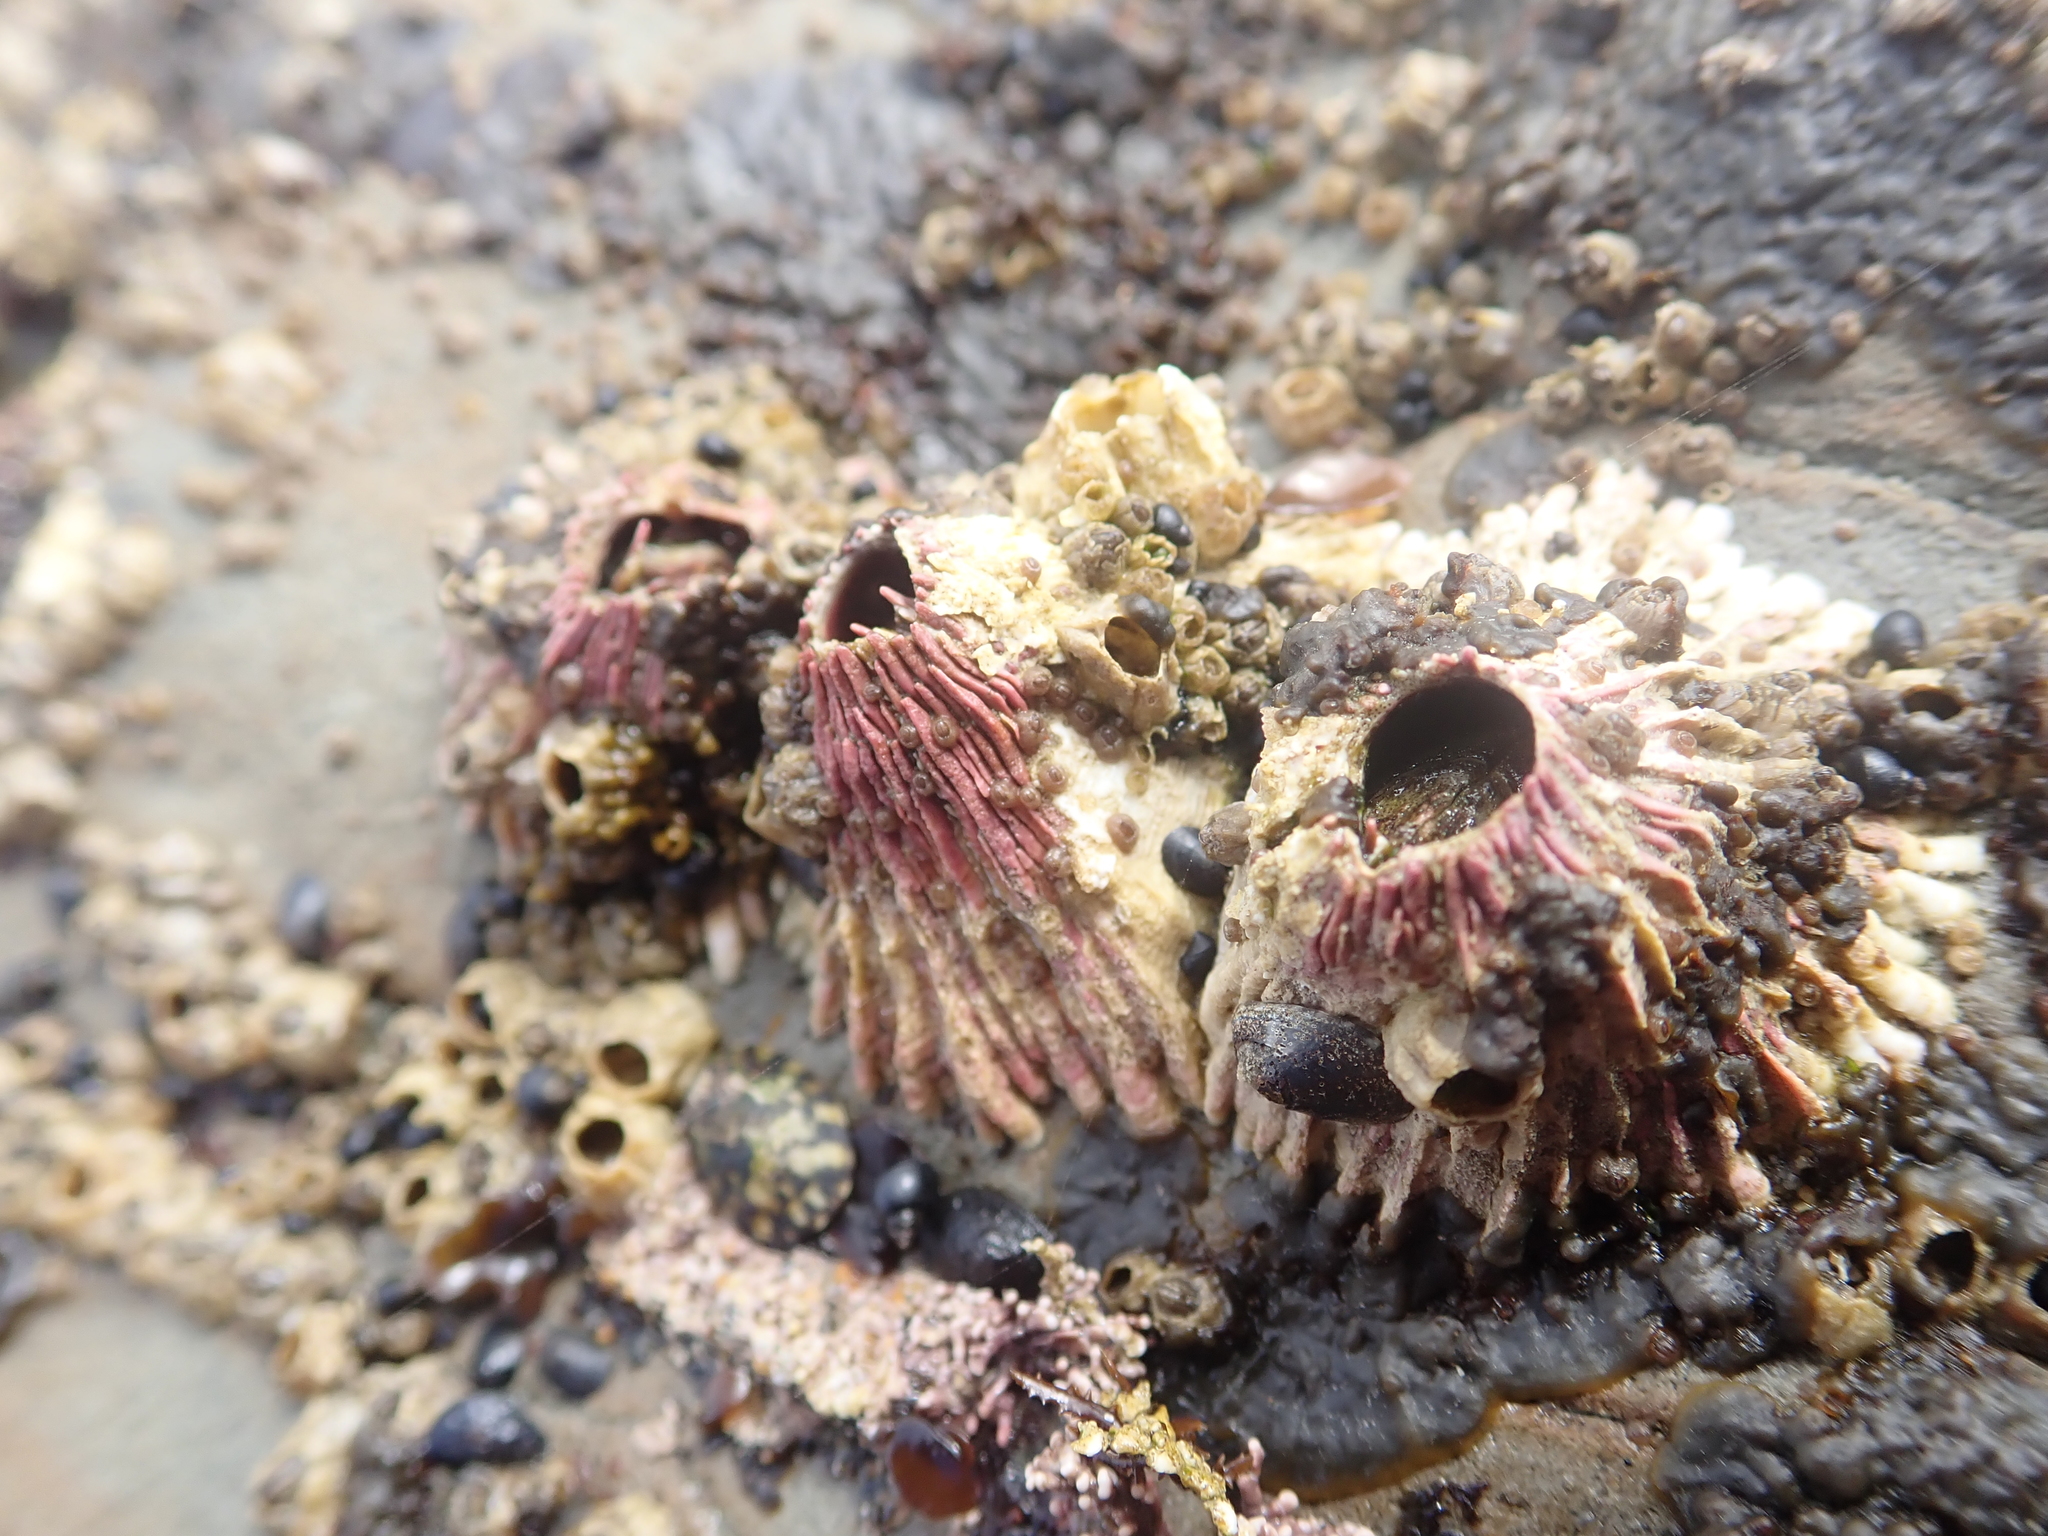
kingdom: Animalia
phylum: Arthropoda
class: Maxillopoda
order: Sessilia
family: Tetraclitidae
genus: Tetraclita
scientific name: Tetraclita rubescens
